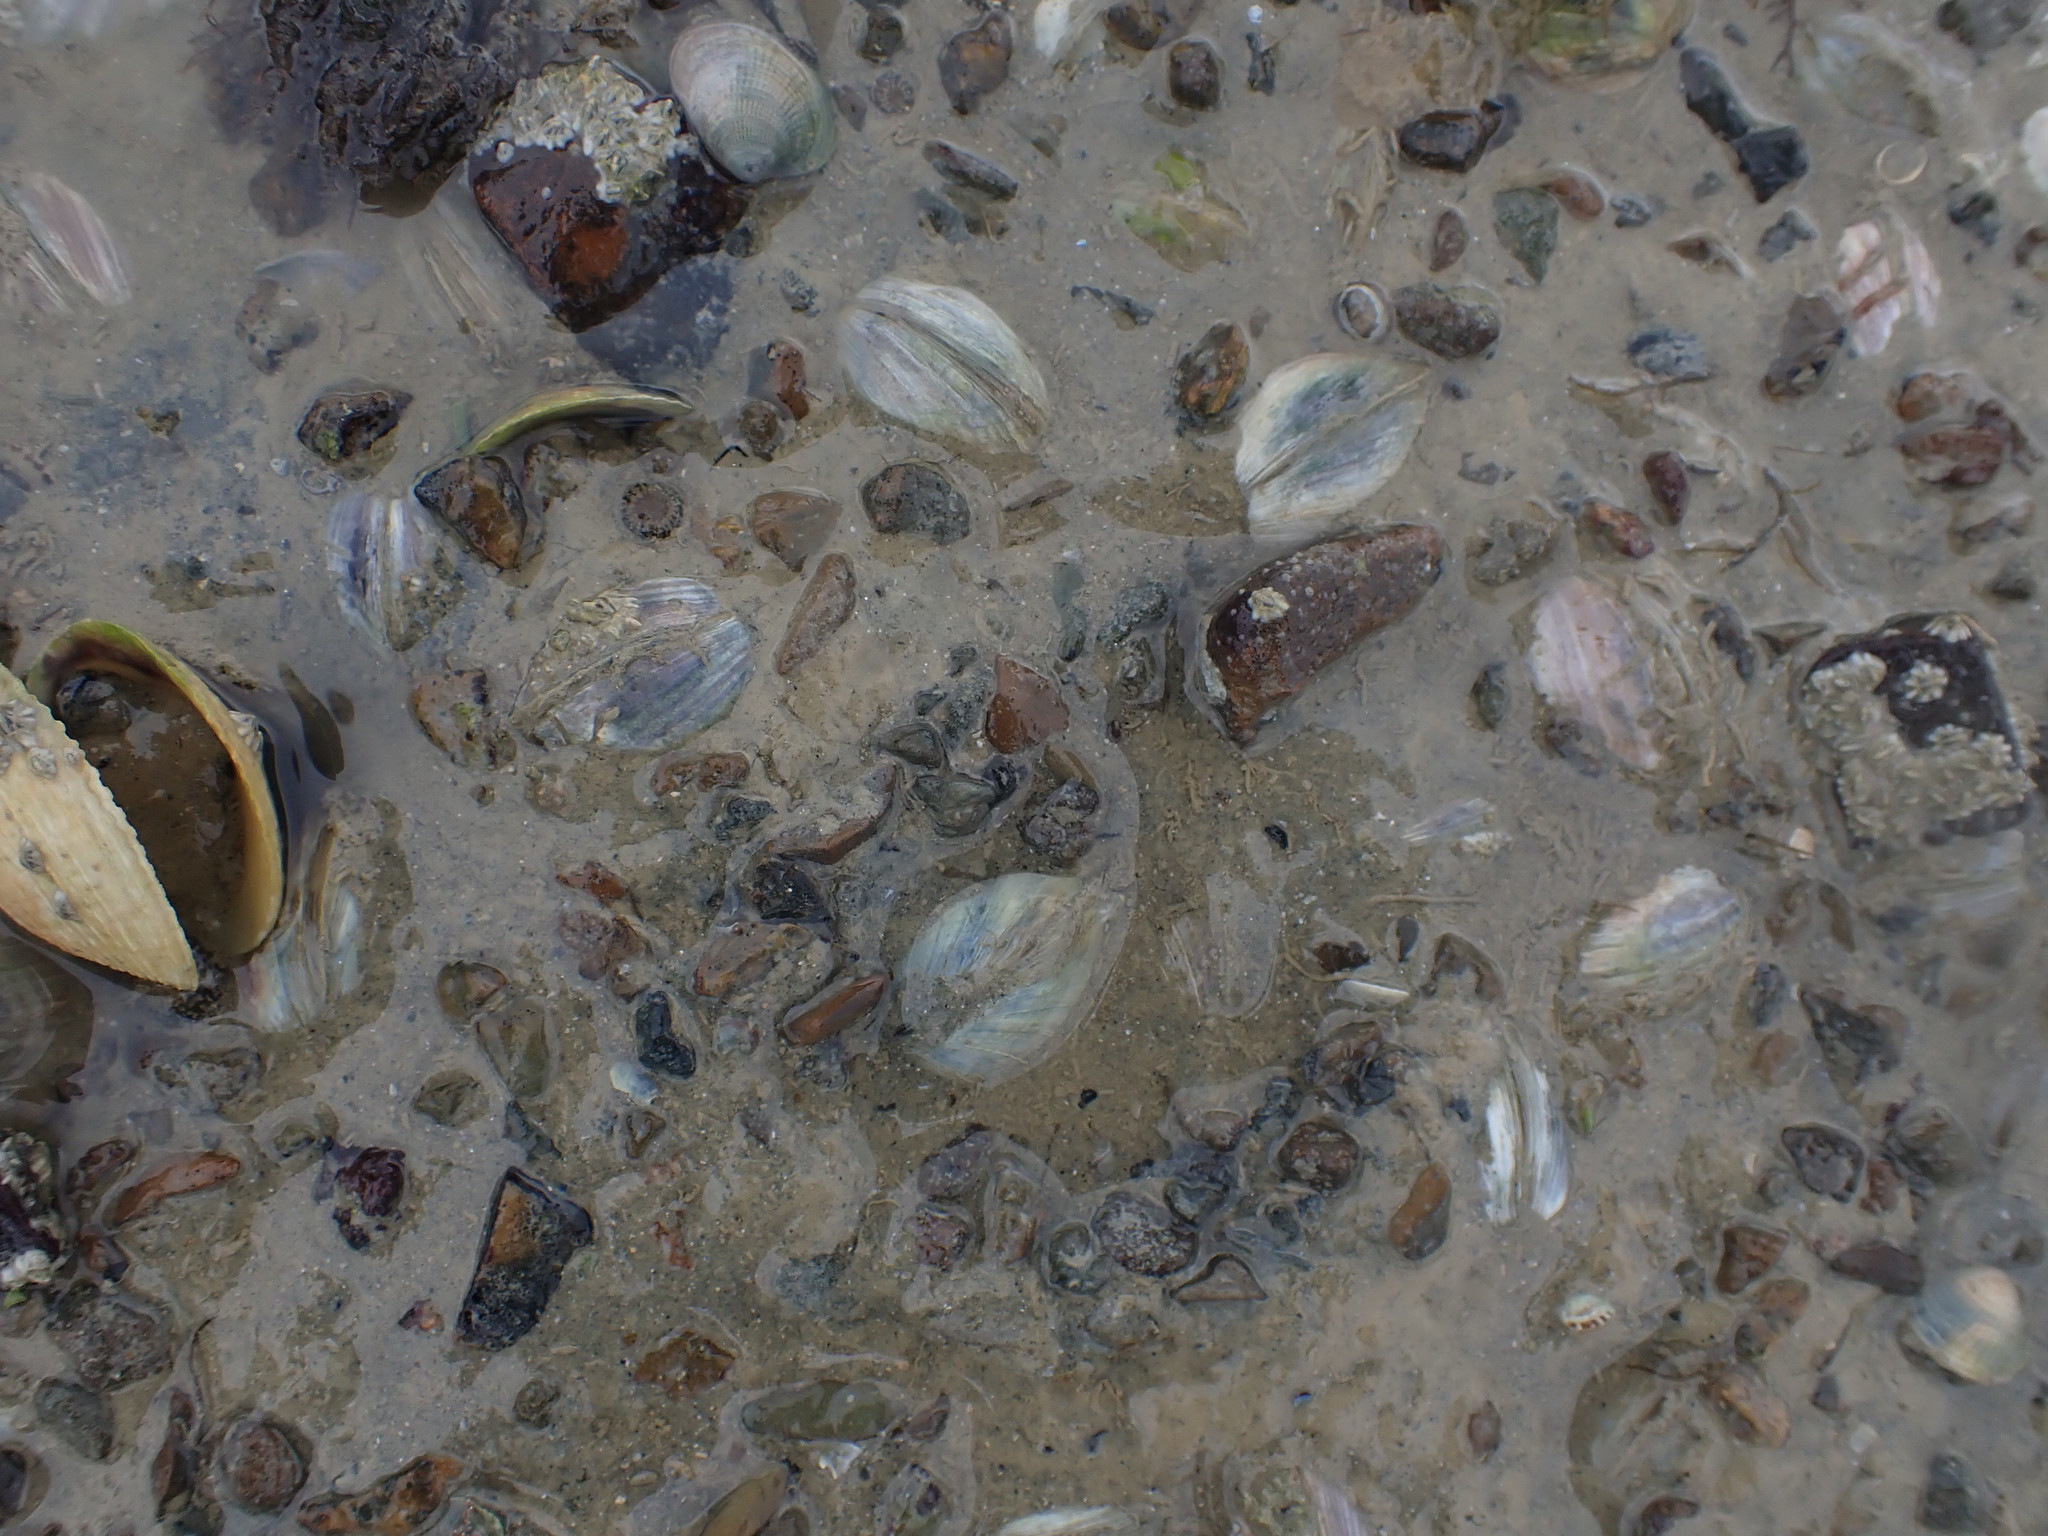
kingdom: Animalia
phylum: Mollusca
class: Bivalvia
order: Venerida
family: Veneridae
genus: Austrovenus
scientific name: Austrovenus stutchburyi
